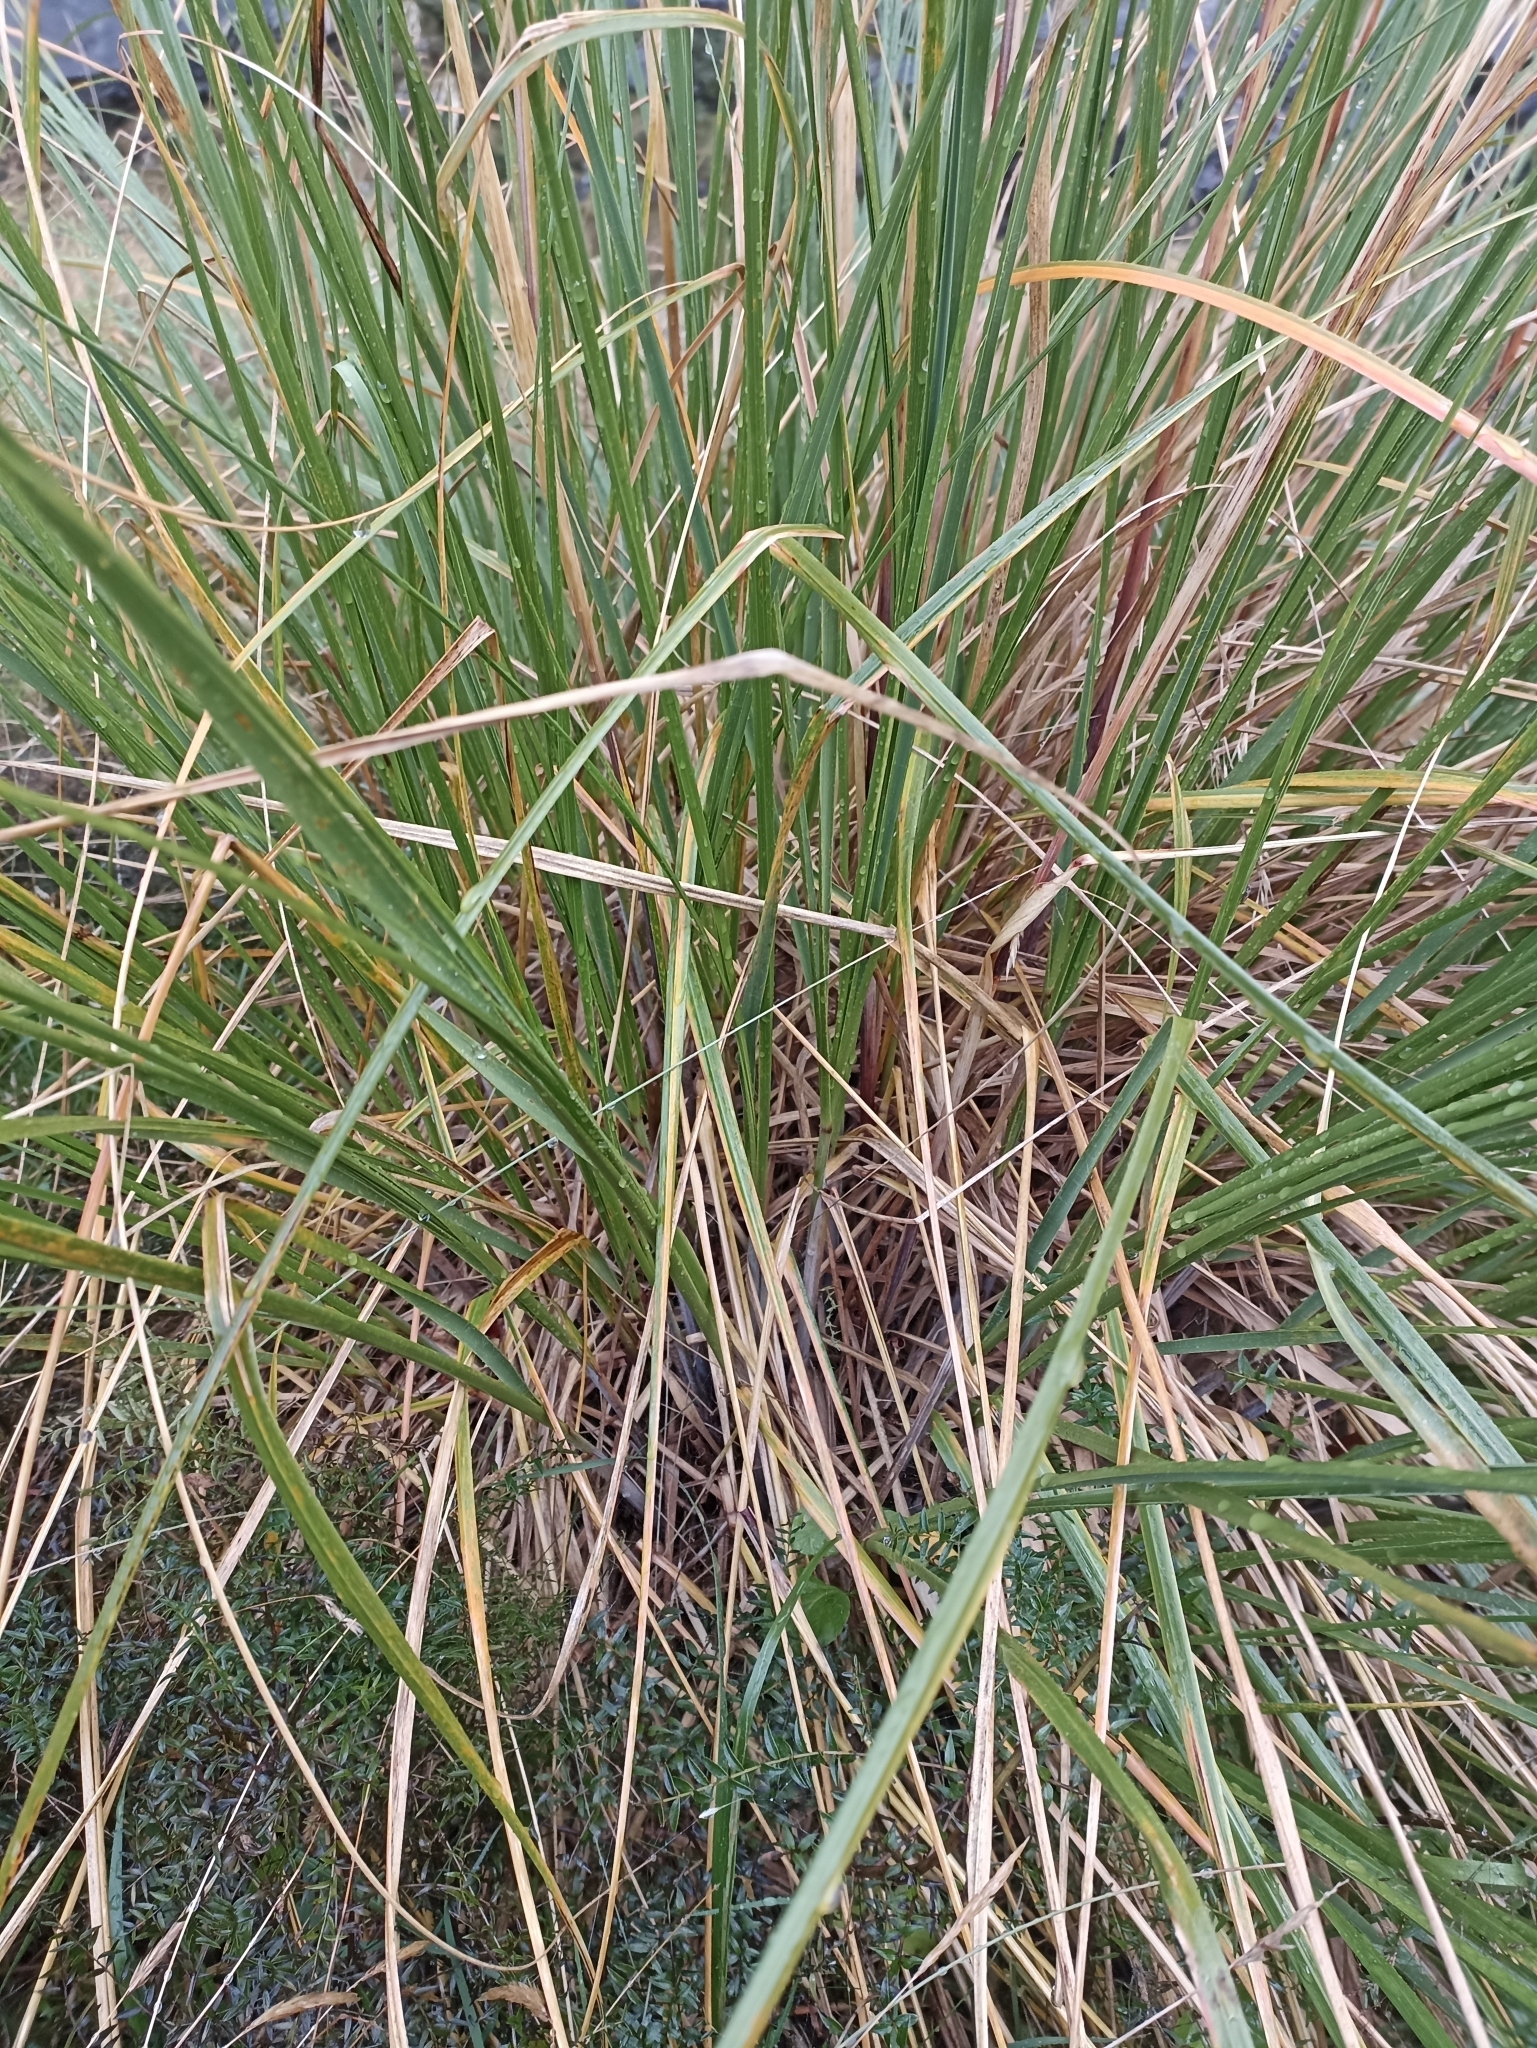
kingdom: Plantae
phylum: Tracheophyta
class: Liliopsida
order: Poales
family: Poaceae
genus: Chionochloa
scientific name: Chionochloa rigida
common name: Narrow leaved snow tussock
